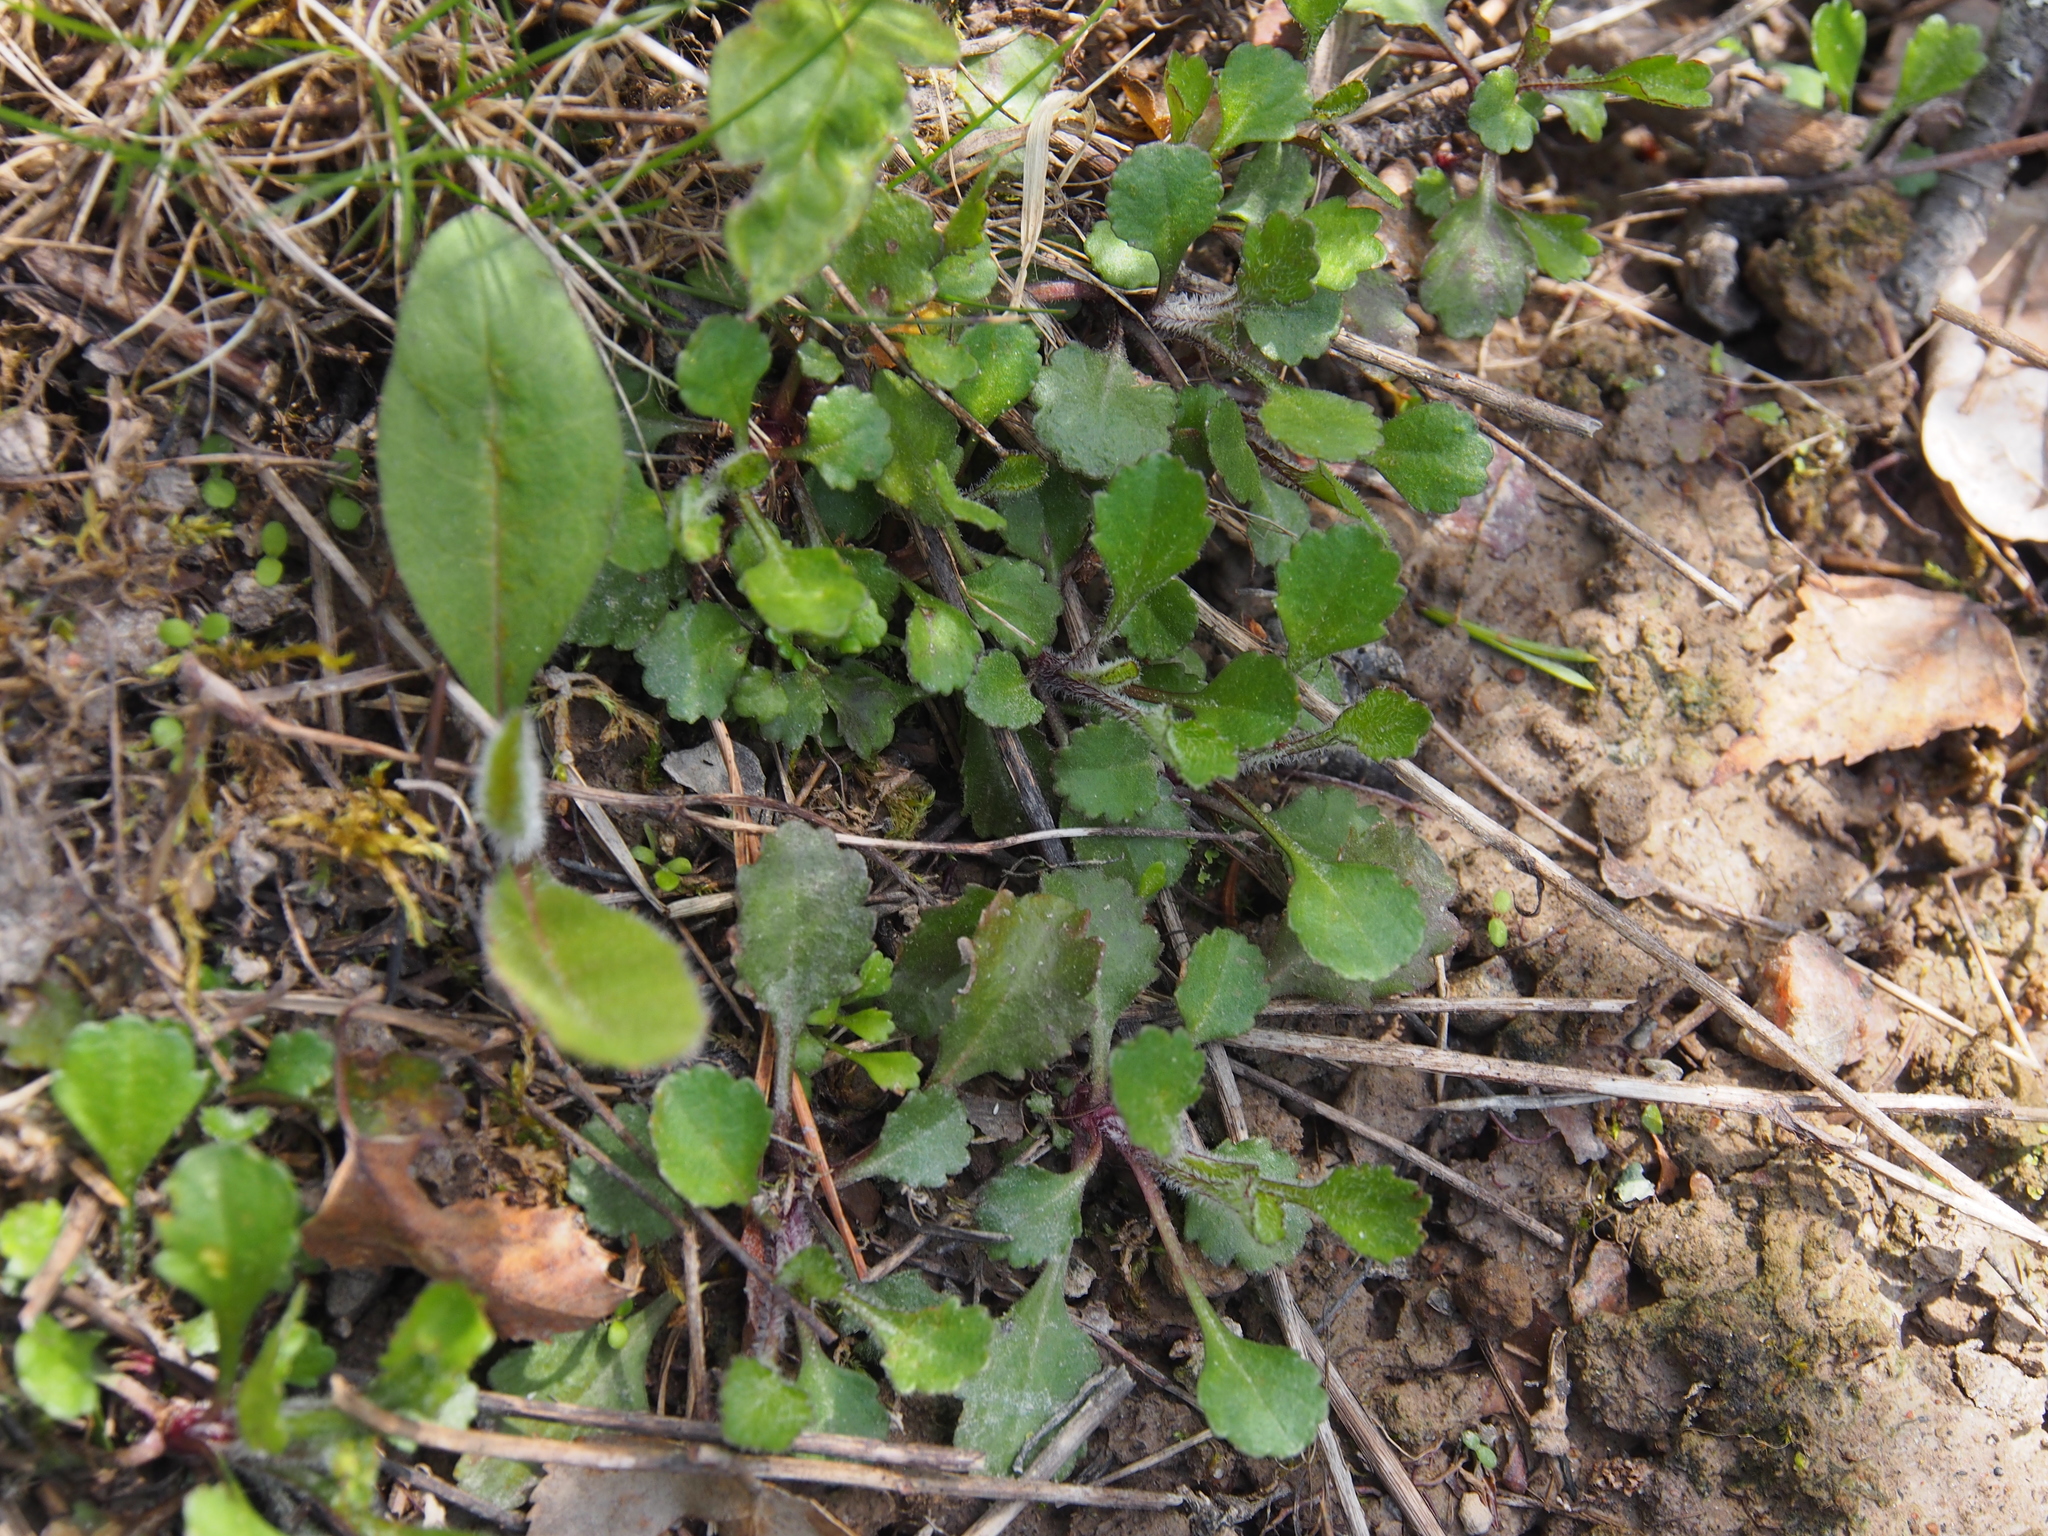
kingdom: Plantae
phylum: Tracheophyta
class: Magnoliopsida
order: Asterales
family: Asteraceae
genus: Leucanthemum
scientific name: Leucanthemum vulgare
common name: Oxeye daisy
